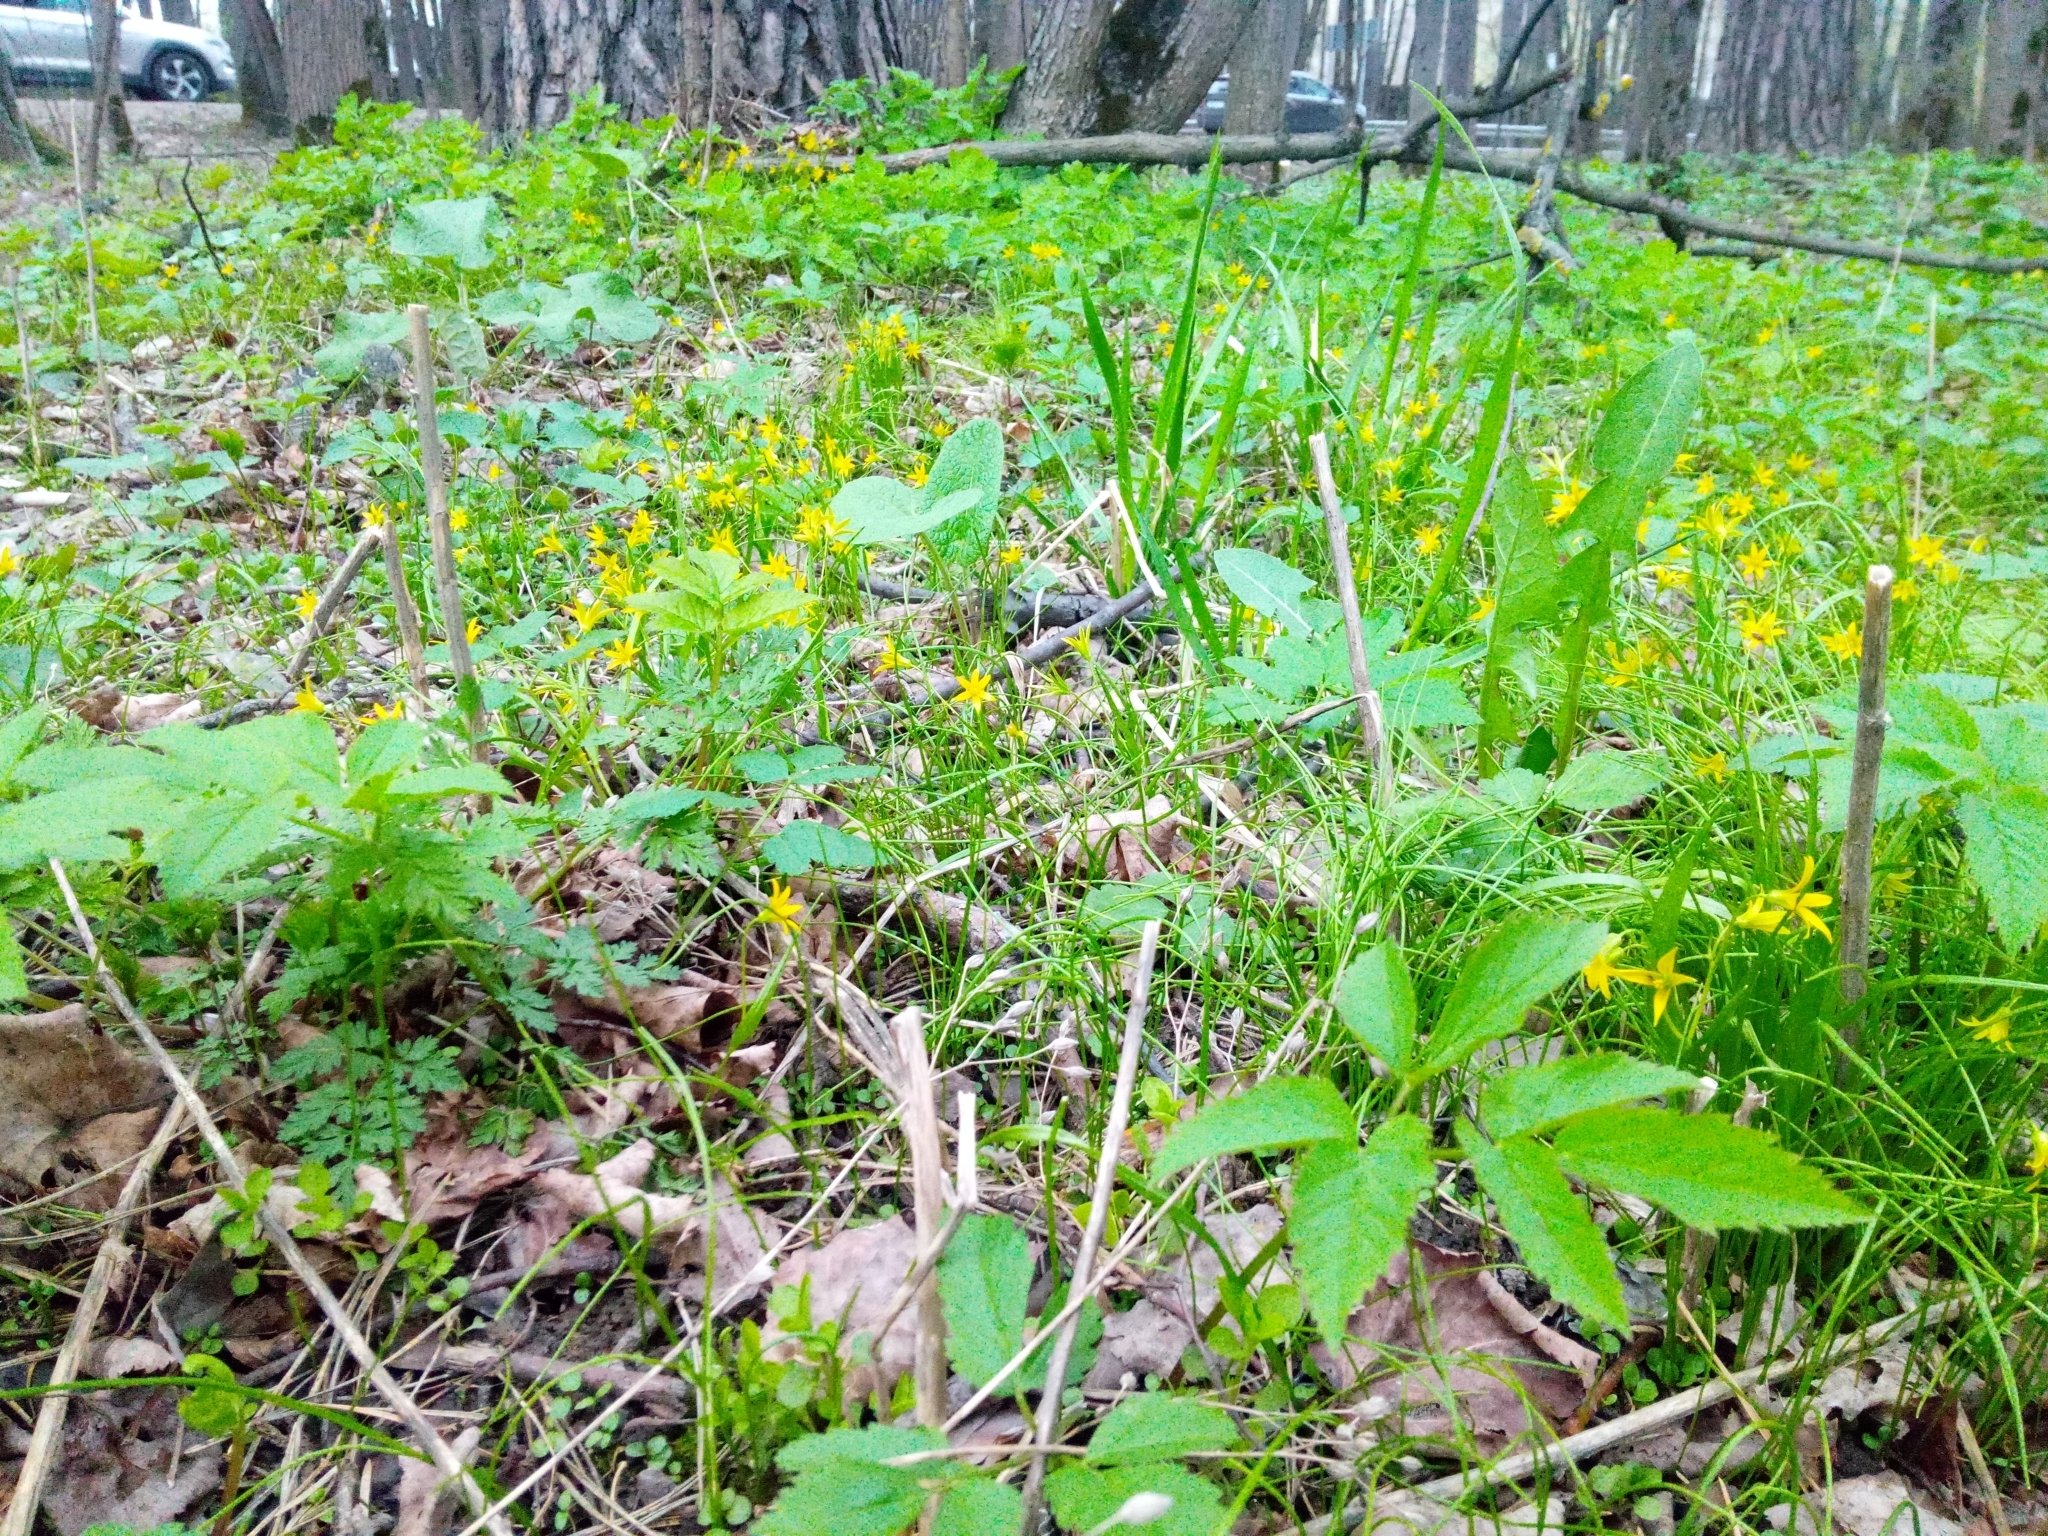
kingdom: Plantae
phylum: Tracheophyta
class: Liliopsida
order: Liliales
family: Liliaceae
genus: Gagea
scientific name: Gagea minima
